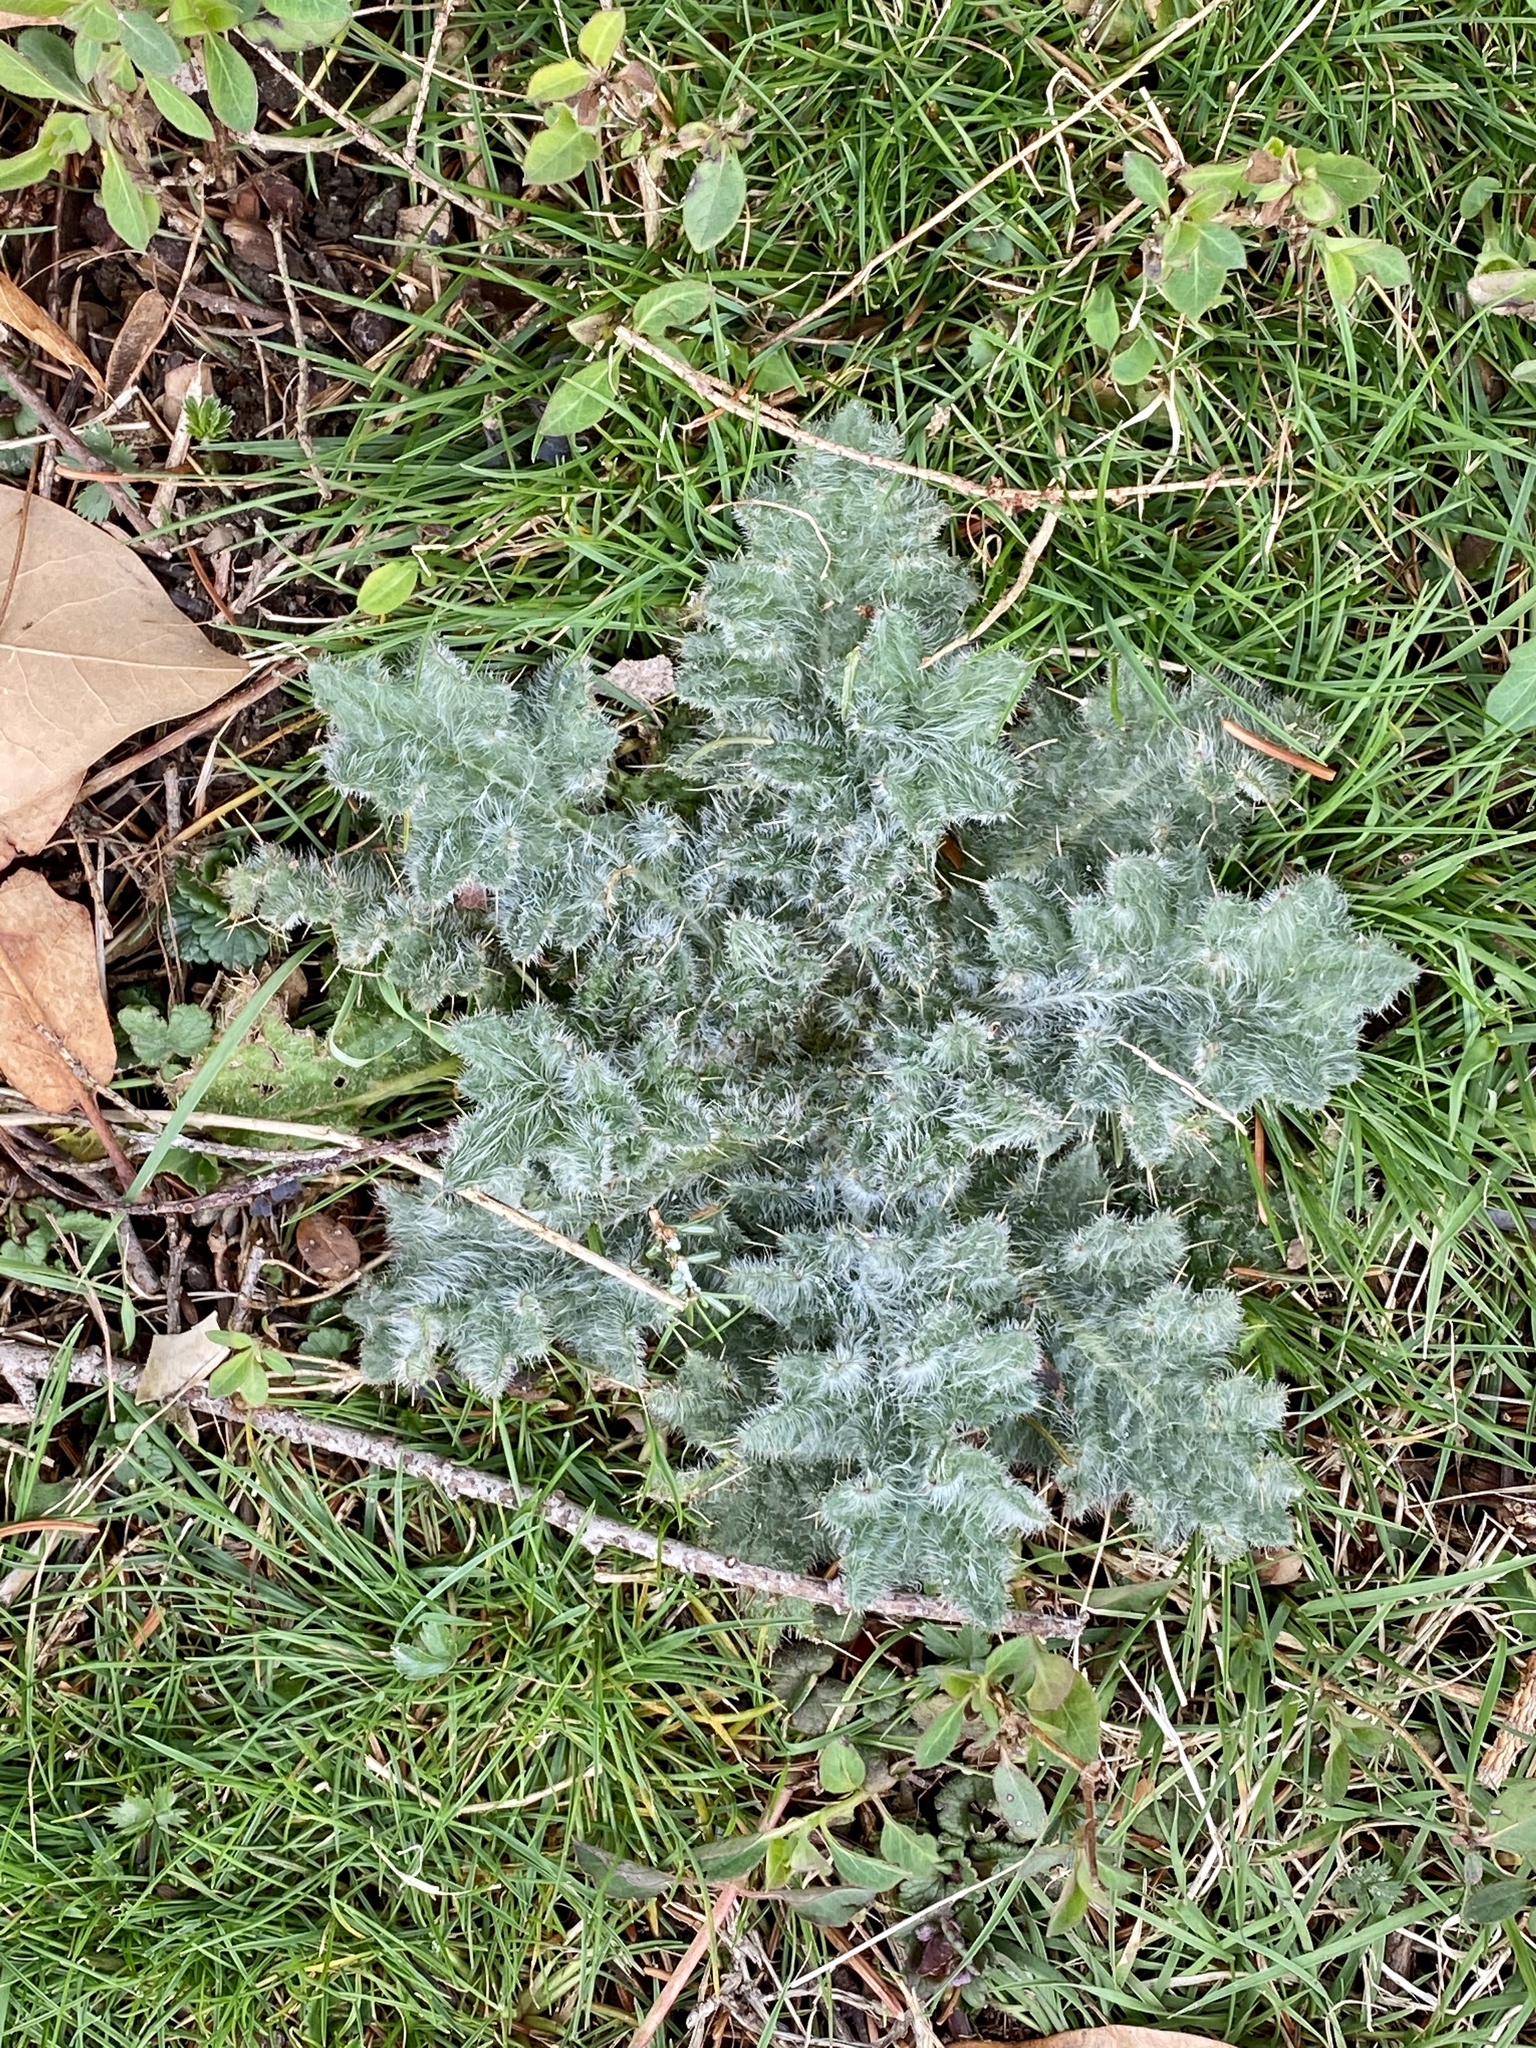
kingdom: Plantae
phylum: Tracheophyta
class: Magnoliopsida
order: Asterales
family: Asteraceae
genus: Cirsium
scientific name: Cirsium vulgare
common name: Bull thistle
